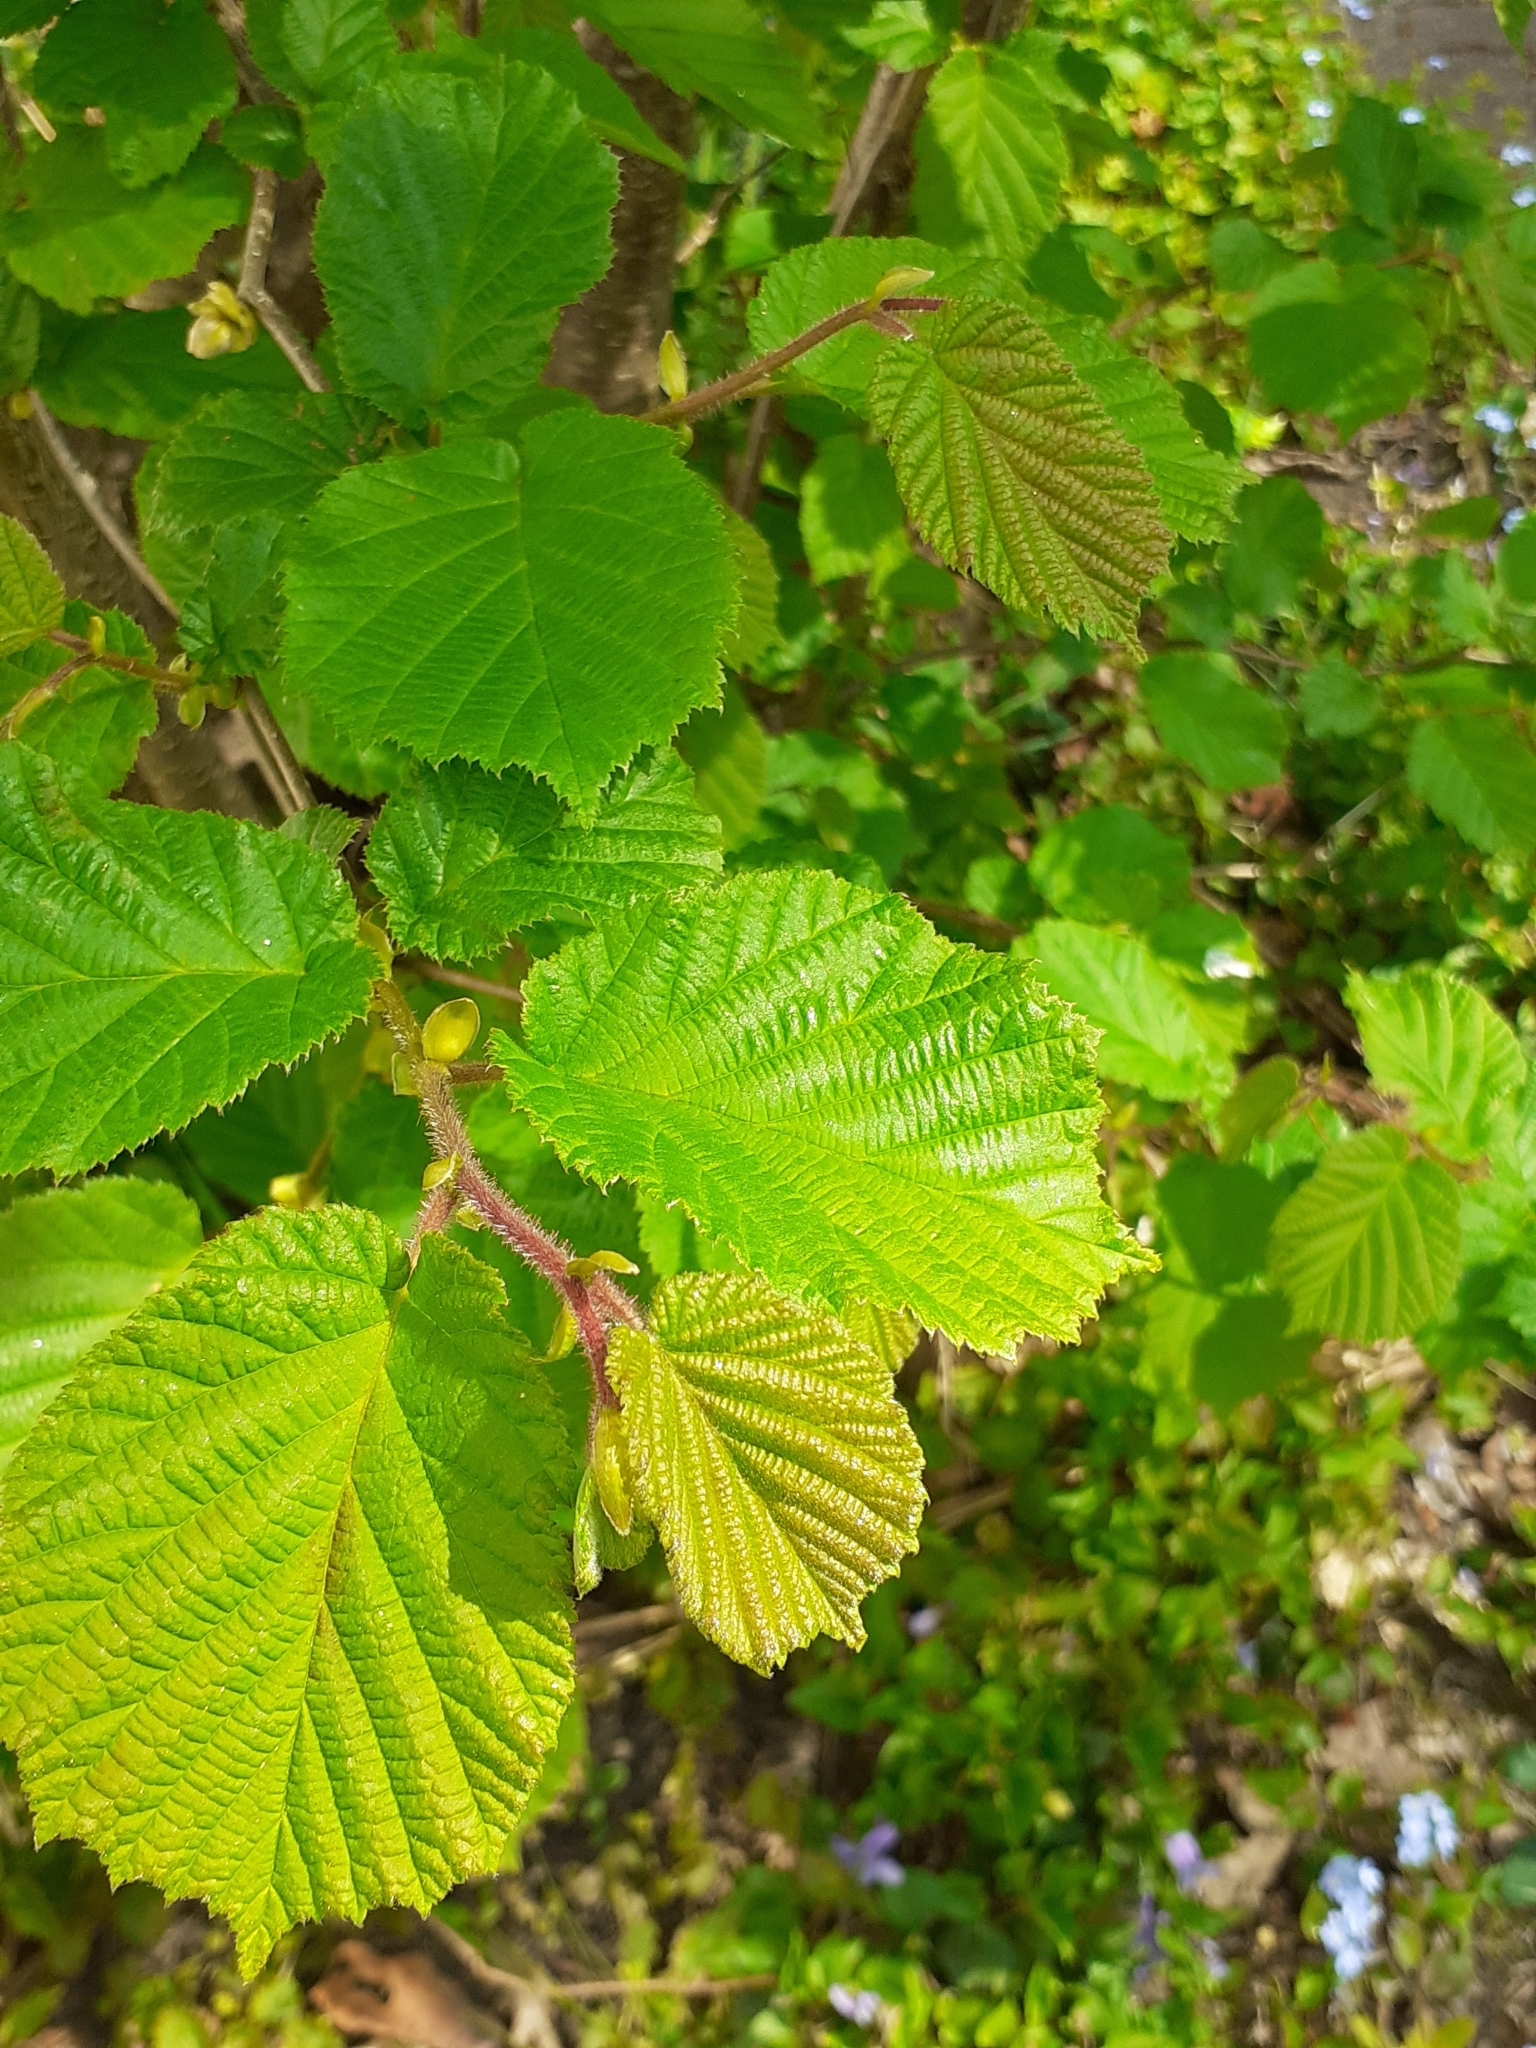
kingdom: Plantae
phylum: Tracheophyta
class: Magnoliopsida
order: Fagales
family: Betulaceae
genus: Corylus
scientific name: Corylus avellana
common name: European hazel
